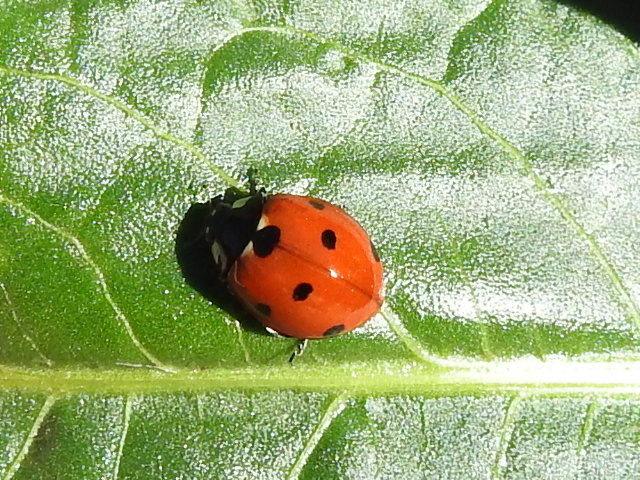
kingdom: Animalia
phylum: Arthropoda
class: Insecta
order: Coleoptera
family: Coccinellidae
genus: Coccinella
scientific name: Coccinella septempunctata
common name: Sevenspotted lady beetle
